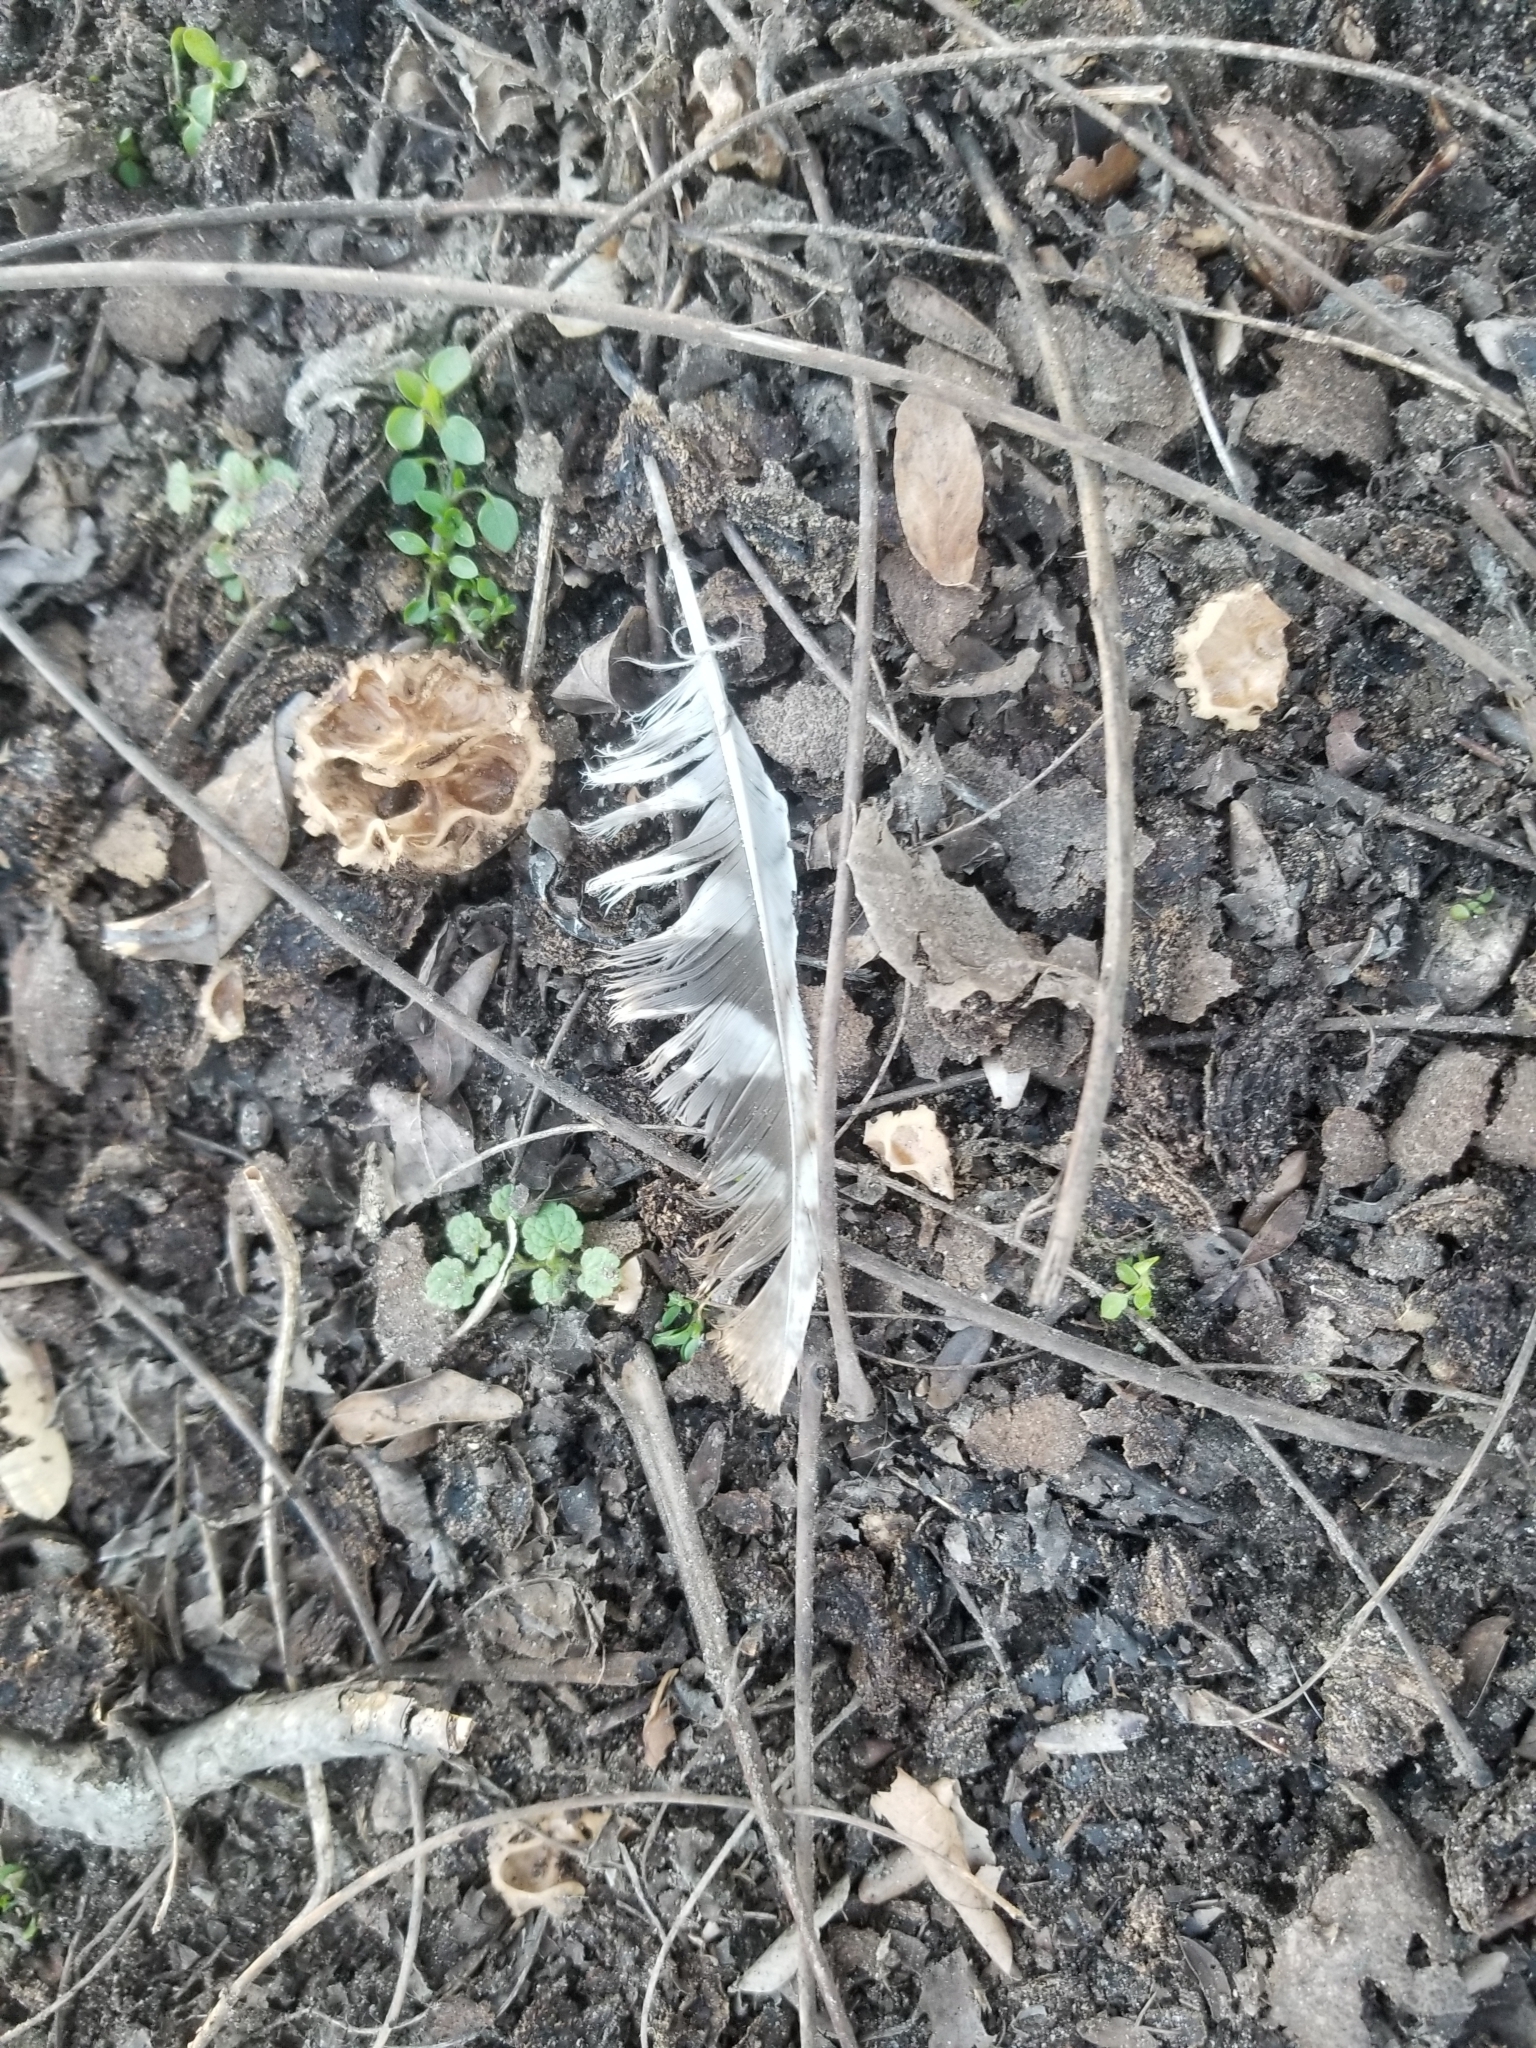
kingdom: Animalia
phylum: Chordata
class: Aves
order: Strigiformes
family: Strigidae
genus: Megascops
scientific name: Megascops asio
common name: Eastern screech-owl
